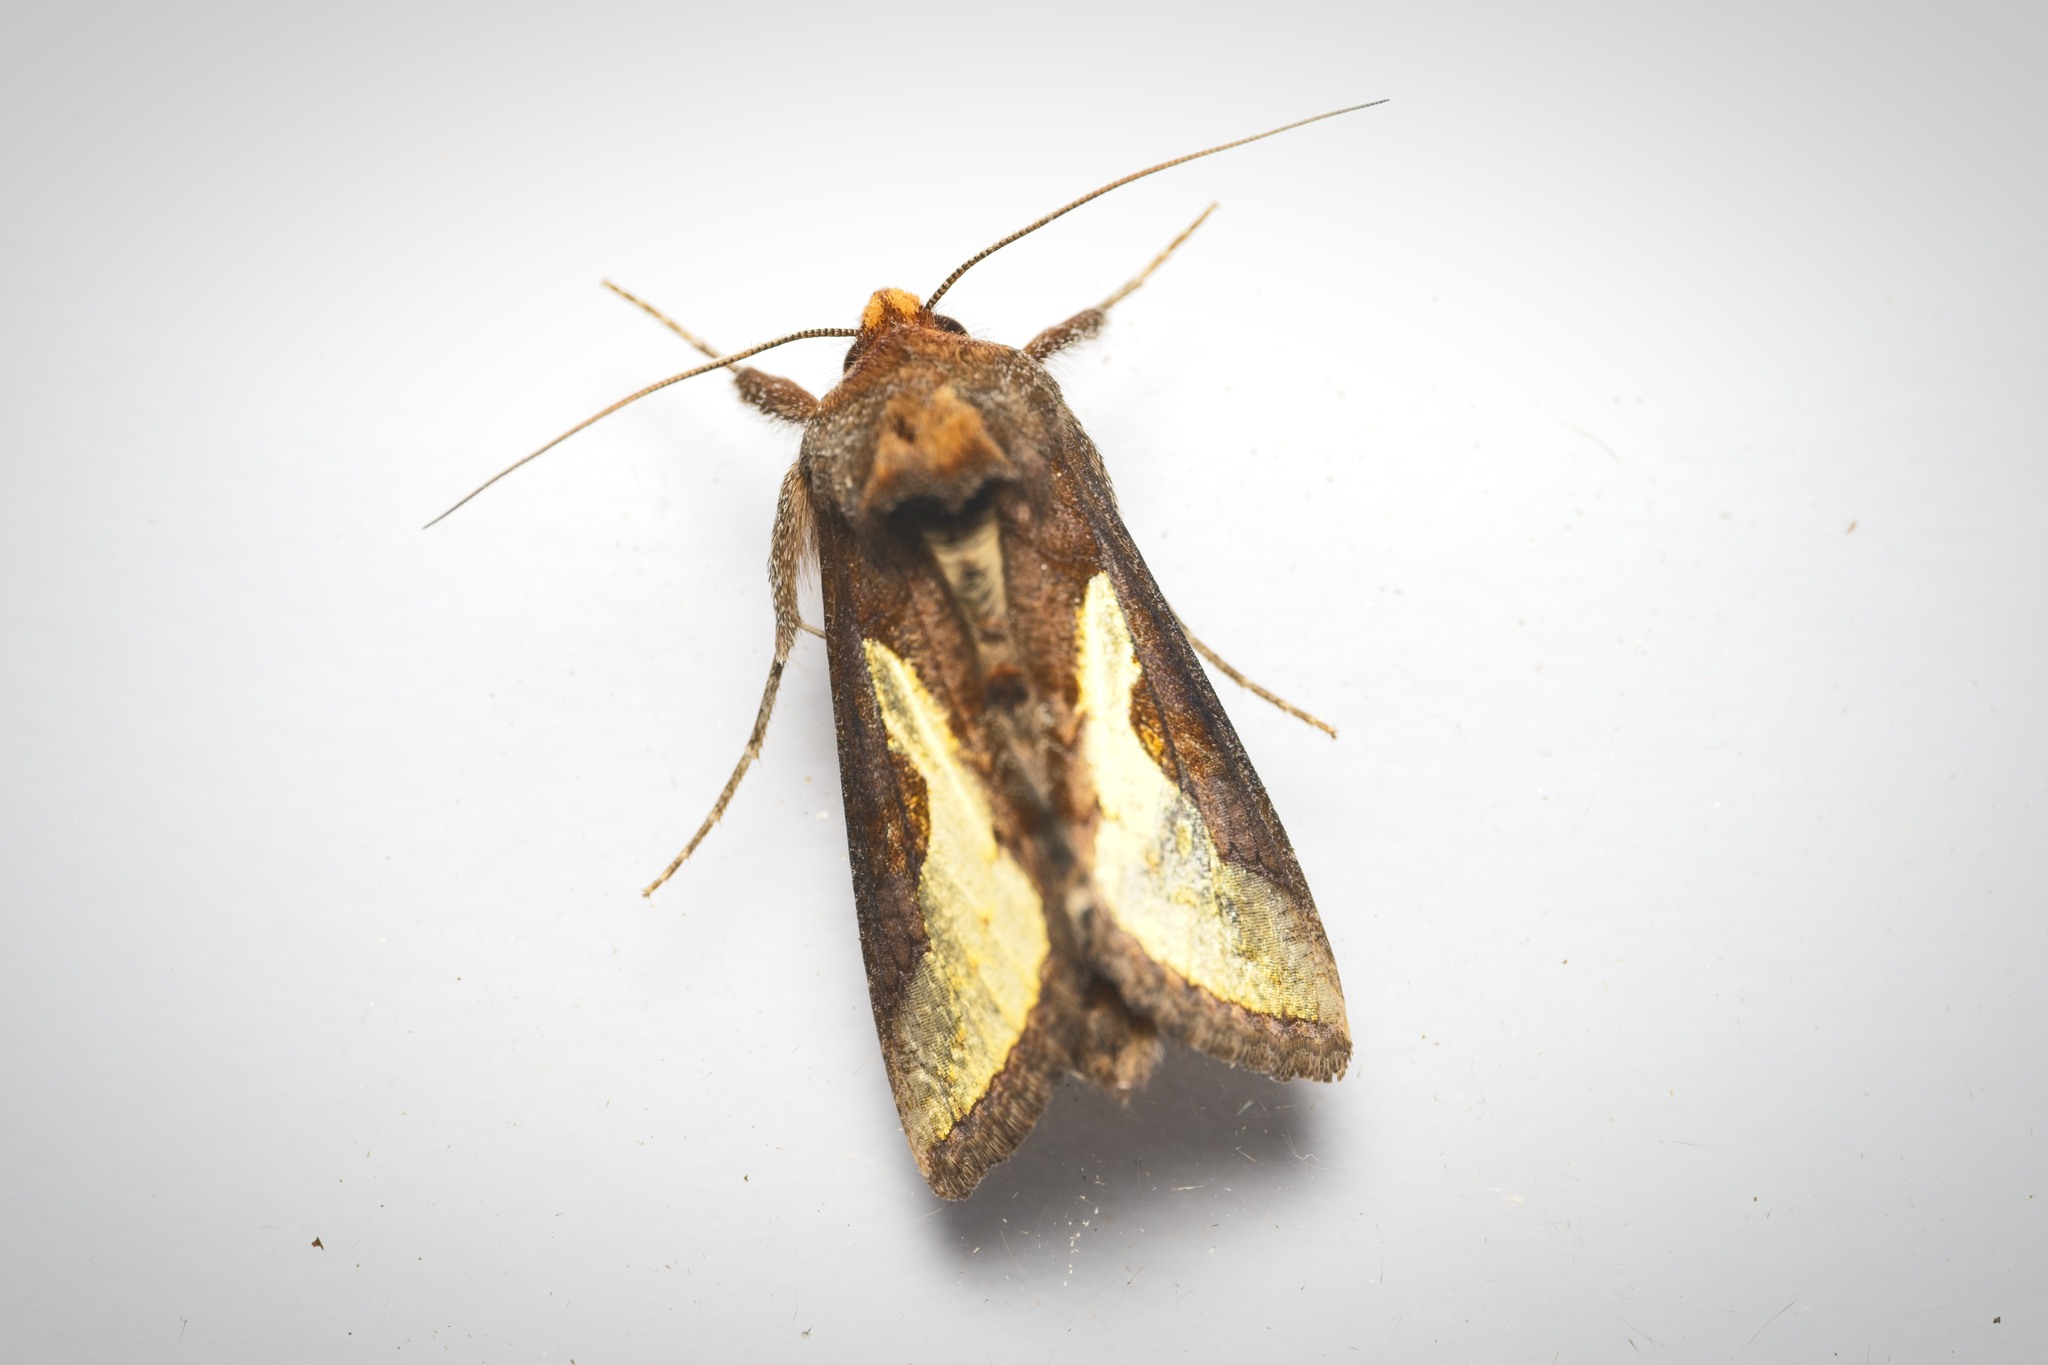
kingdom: Animalia
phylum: Arthropoda
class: Insecta
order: Lepidoptera
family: Noctuidae
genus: Thysanoplusia
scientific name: Thysanoplusia orichalcea
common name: Slender burnished brass, golden plusia
